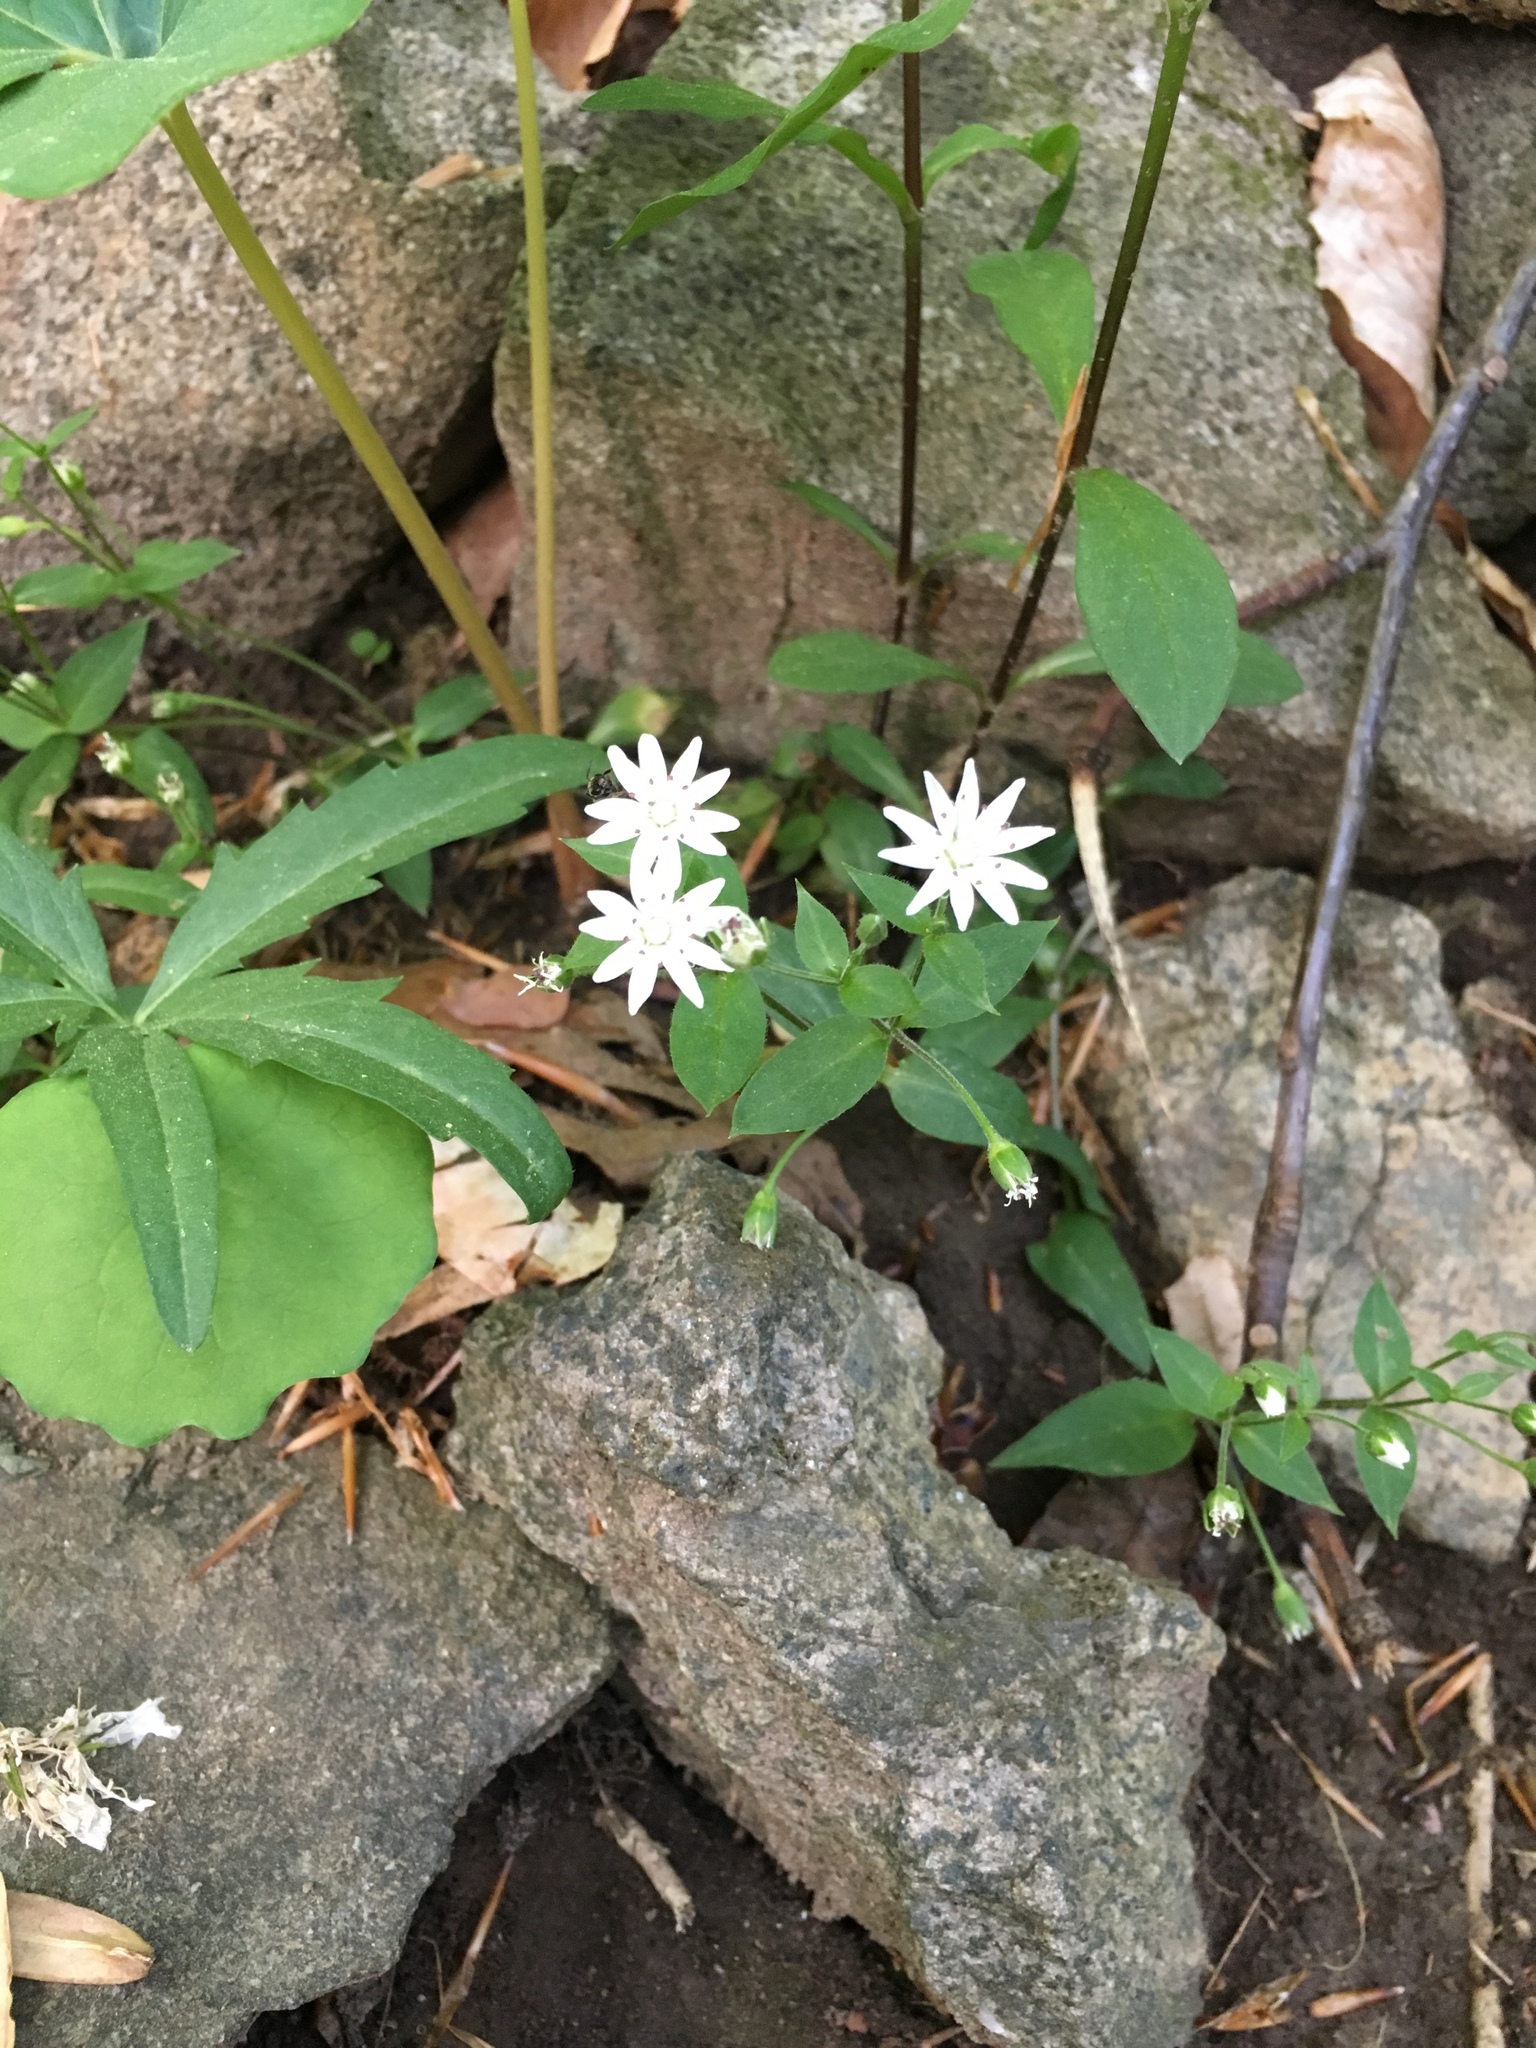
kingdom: Plantae
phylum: Tracheophyta
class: Magnoliopsida
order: Caryophyllales
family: Caryophyllaceae
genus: Stellaria
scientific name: Stellaria pubera
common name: Star chickweed
